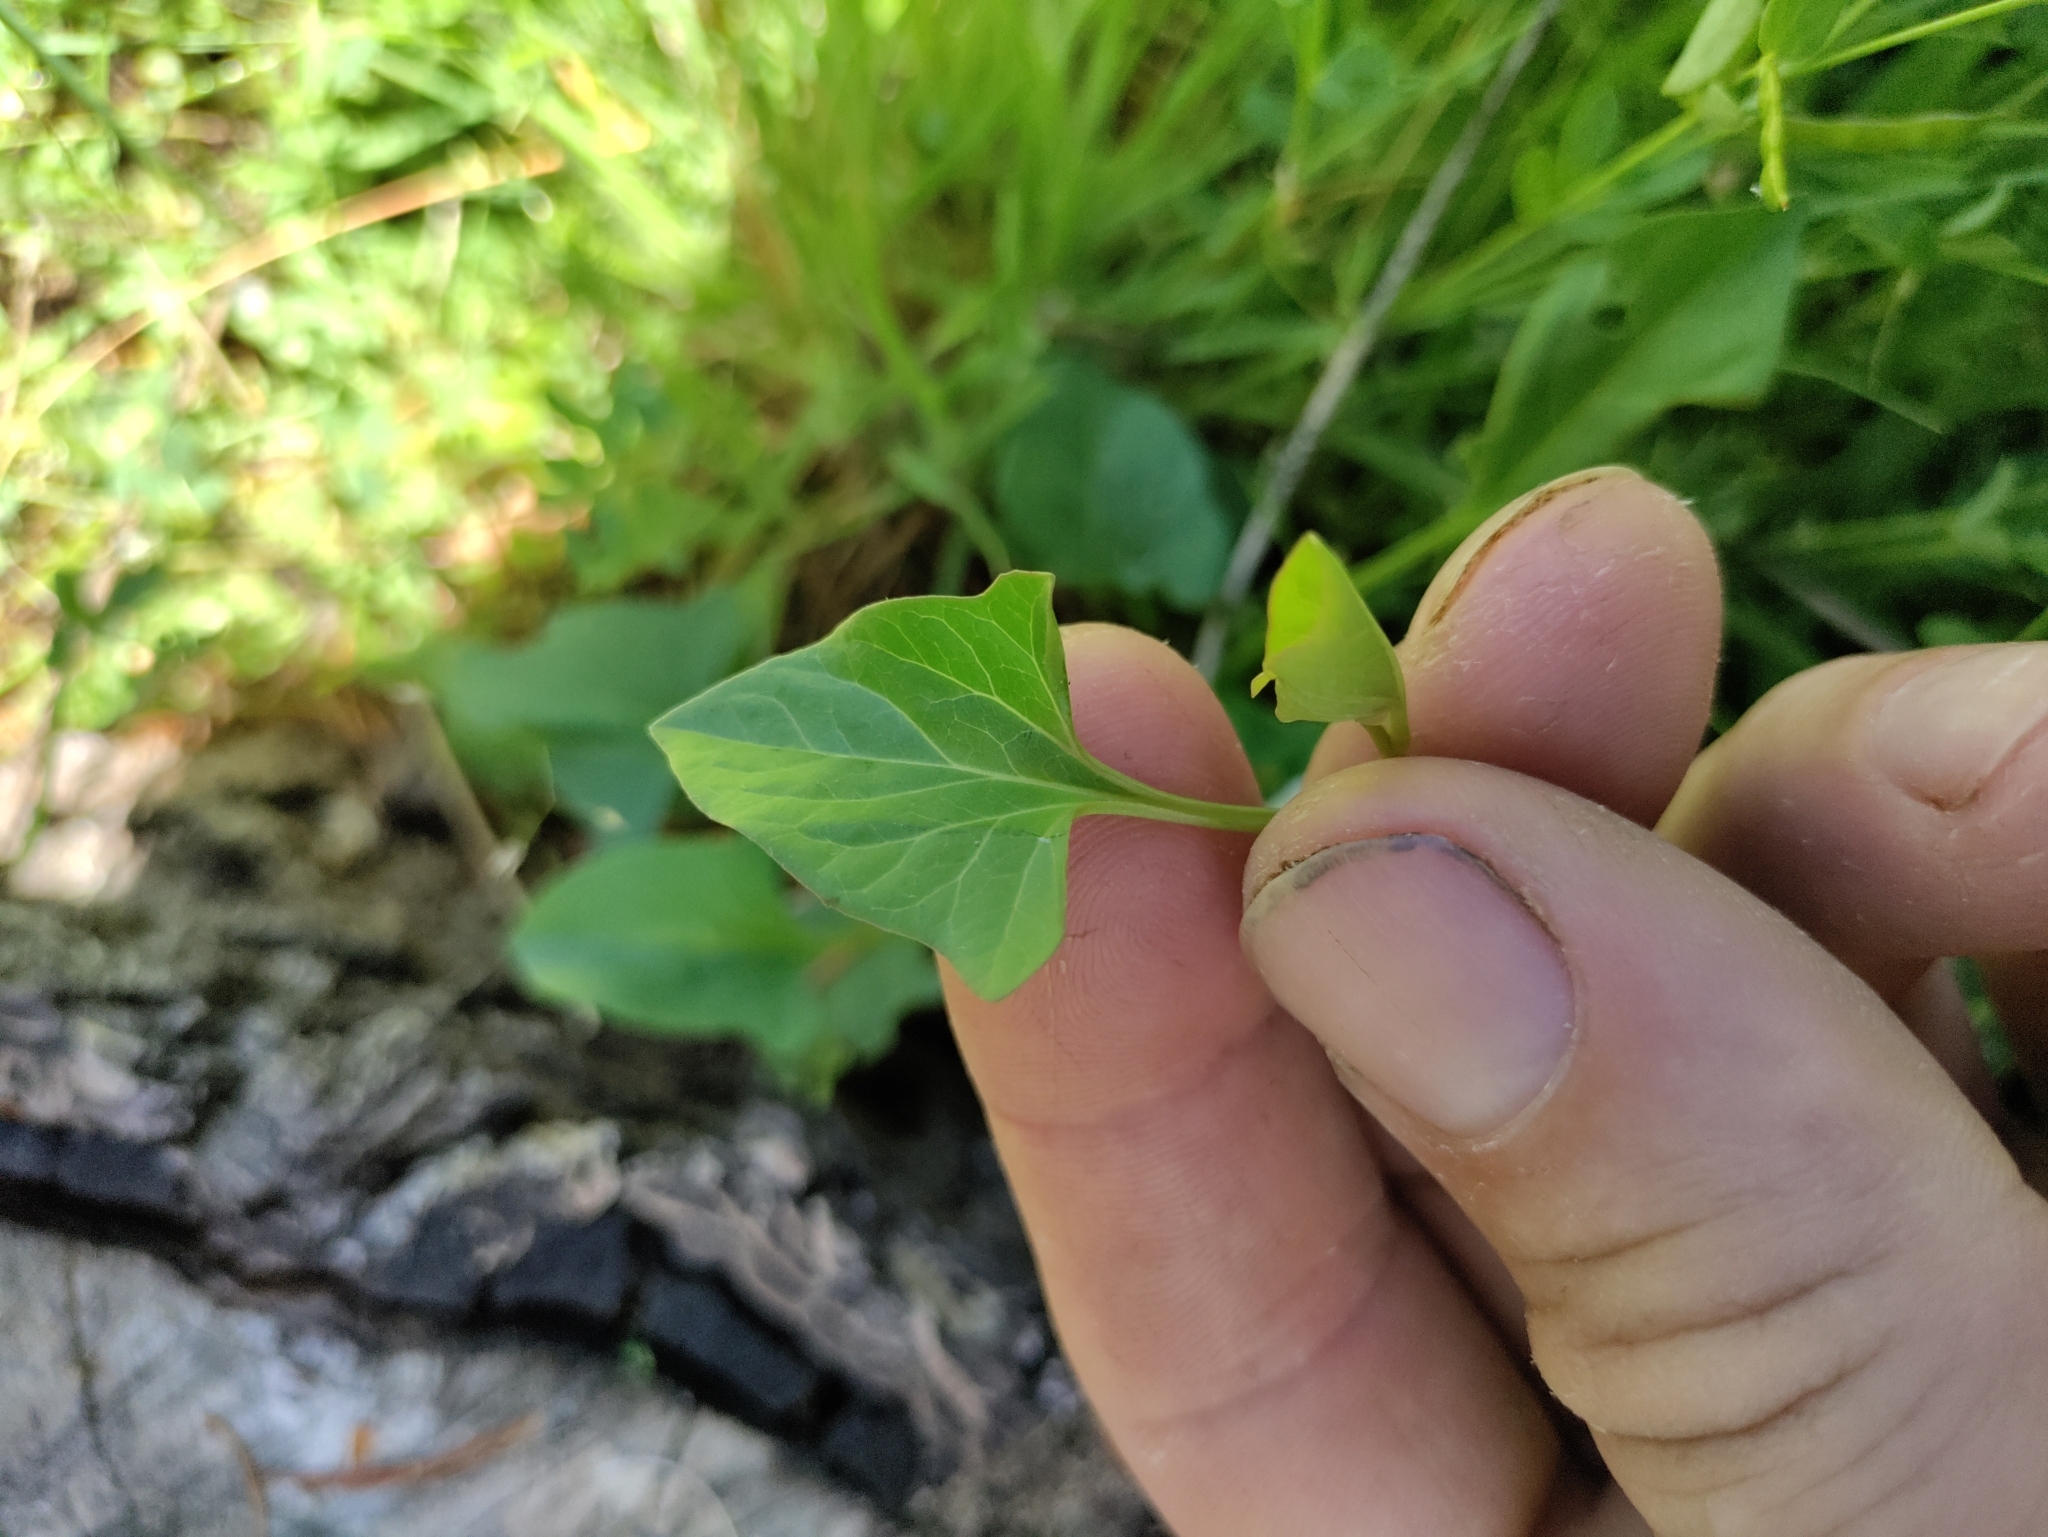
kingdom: Plantae
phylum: Tracheophyta
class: Magnoliopsida
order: Solanales
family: Convolvulaceae
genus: Calystegia
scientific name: Calystegia atriplicifolia
